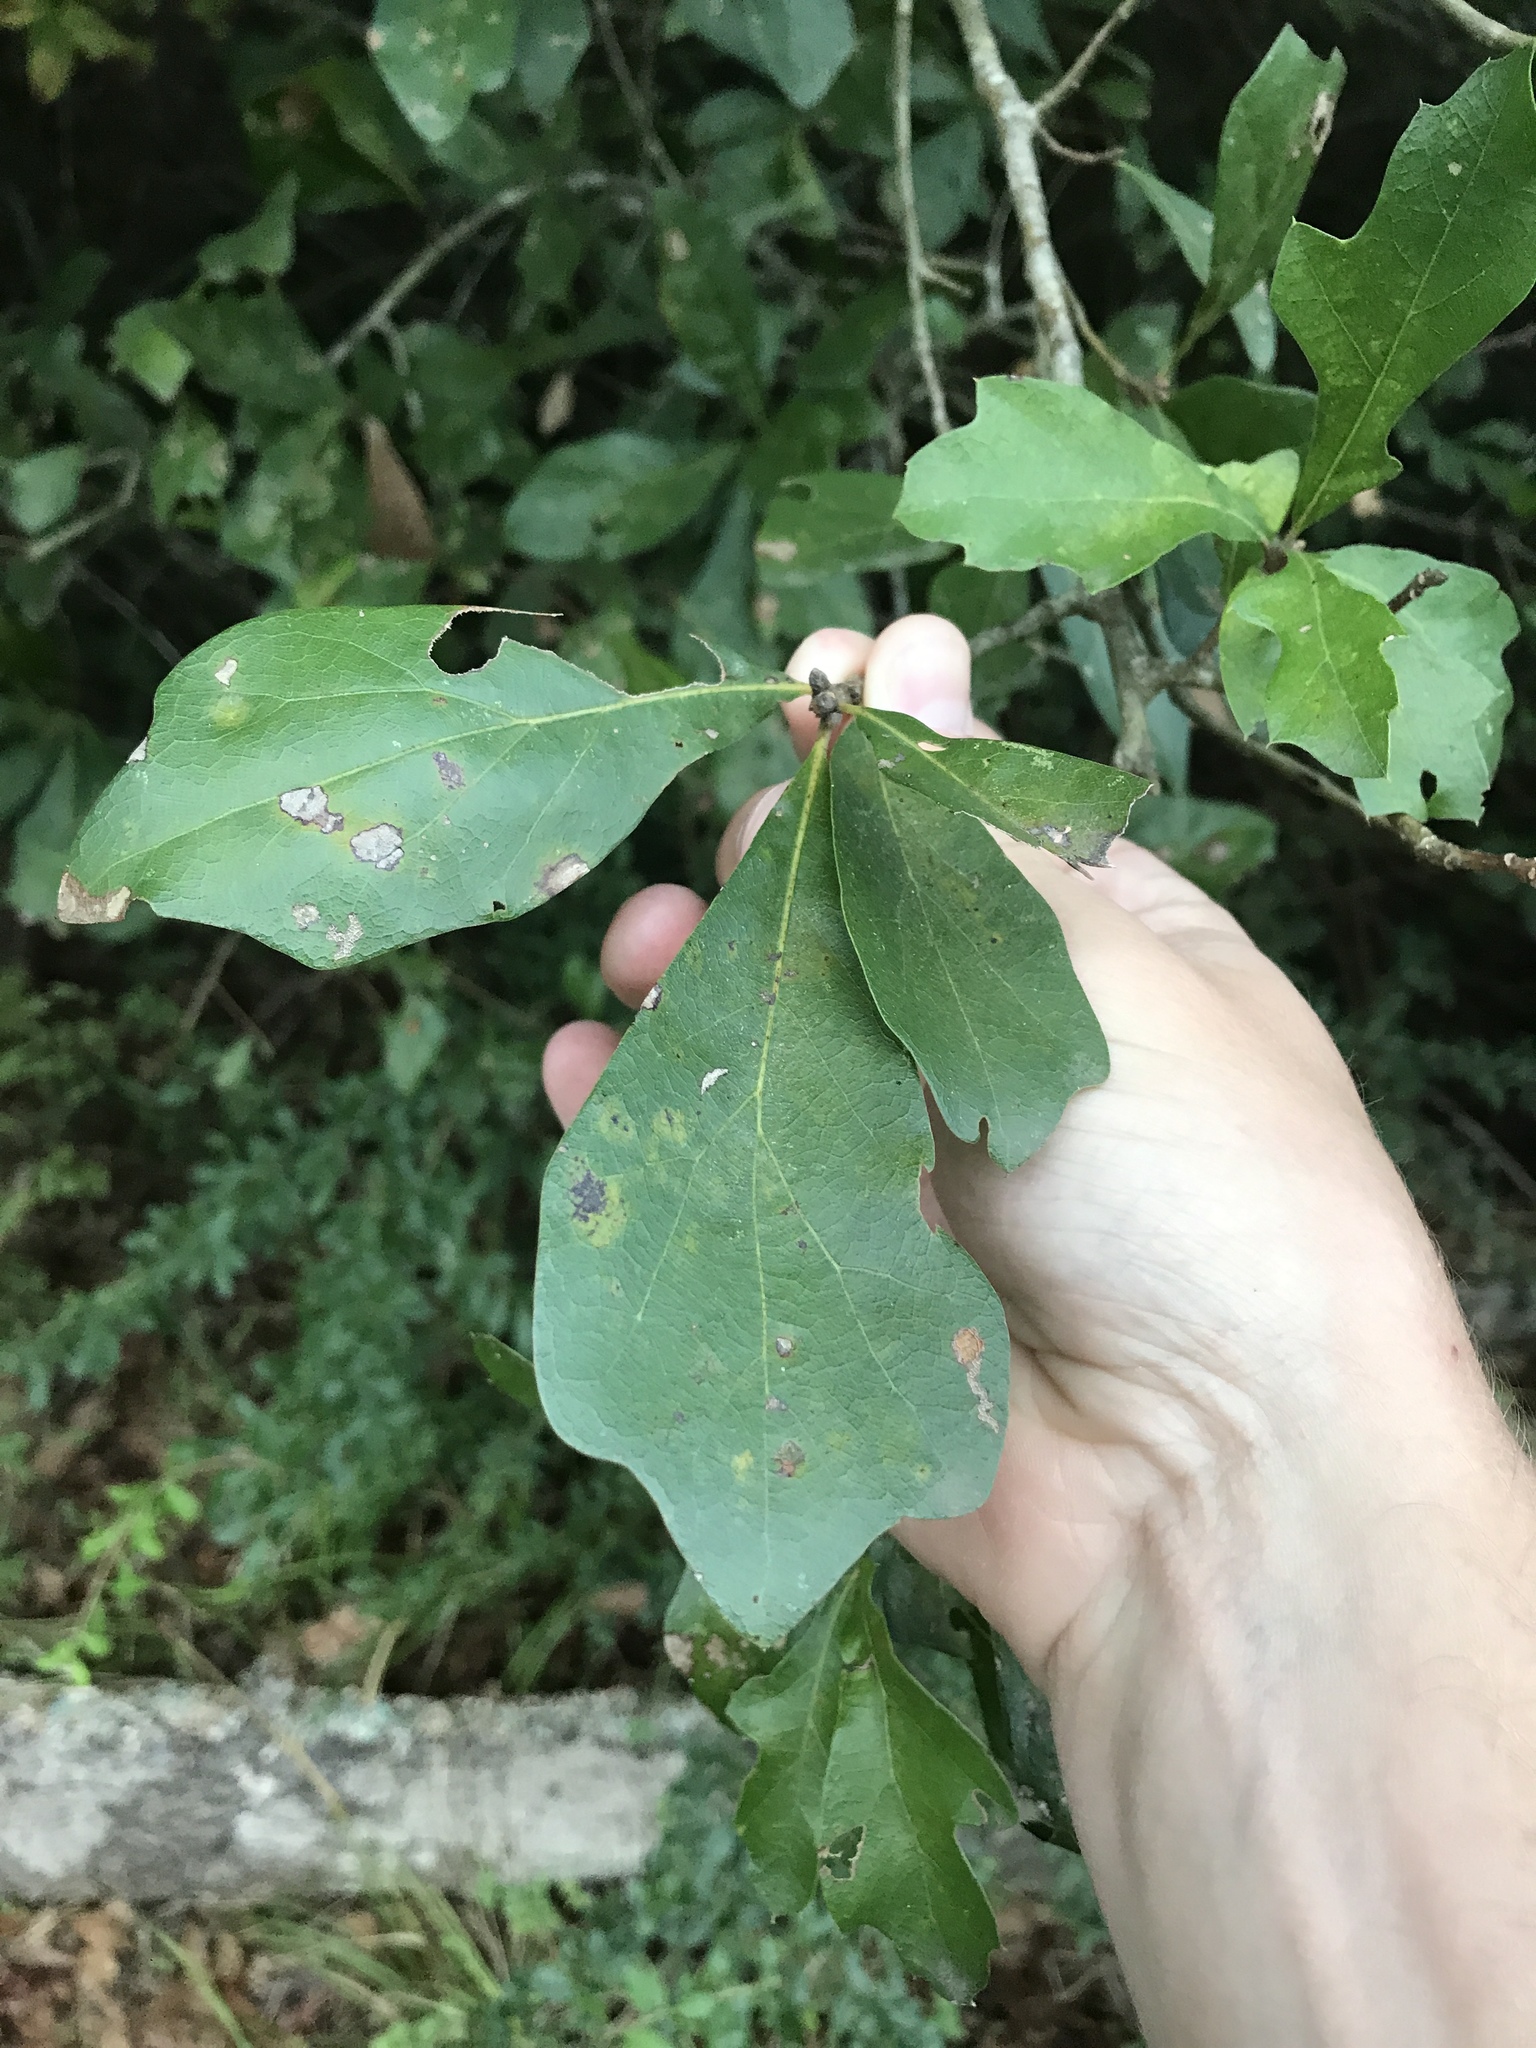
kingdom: Plantae
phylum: Tracheophyta
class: Magnoliopsida
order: Fagales
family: Fagaceae
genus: Quercus
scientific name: Quercus nigra
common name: Water oak
